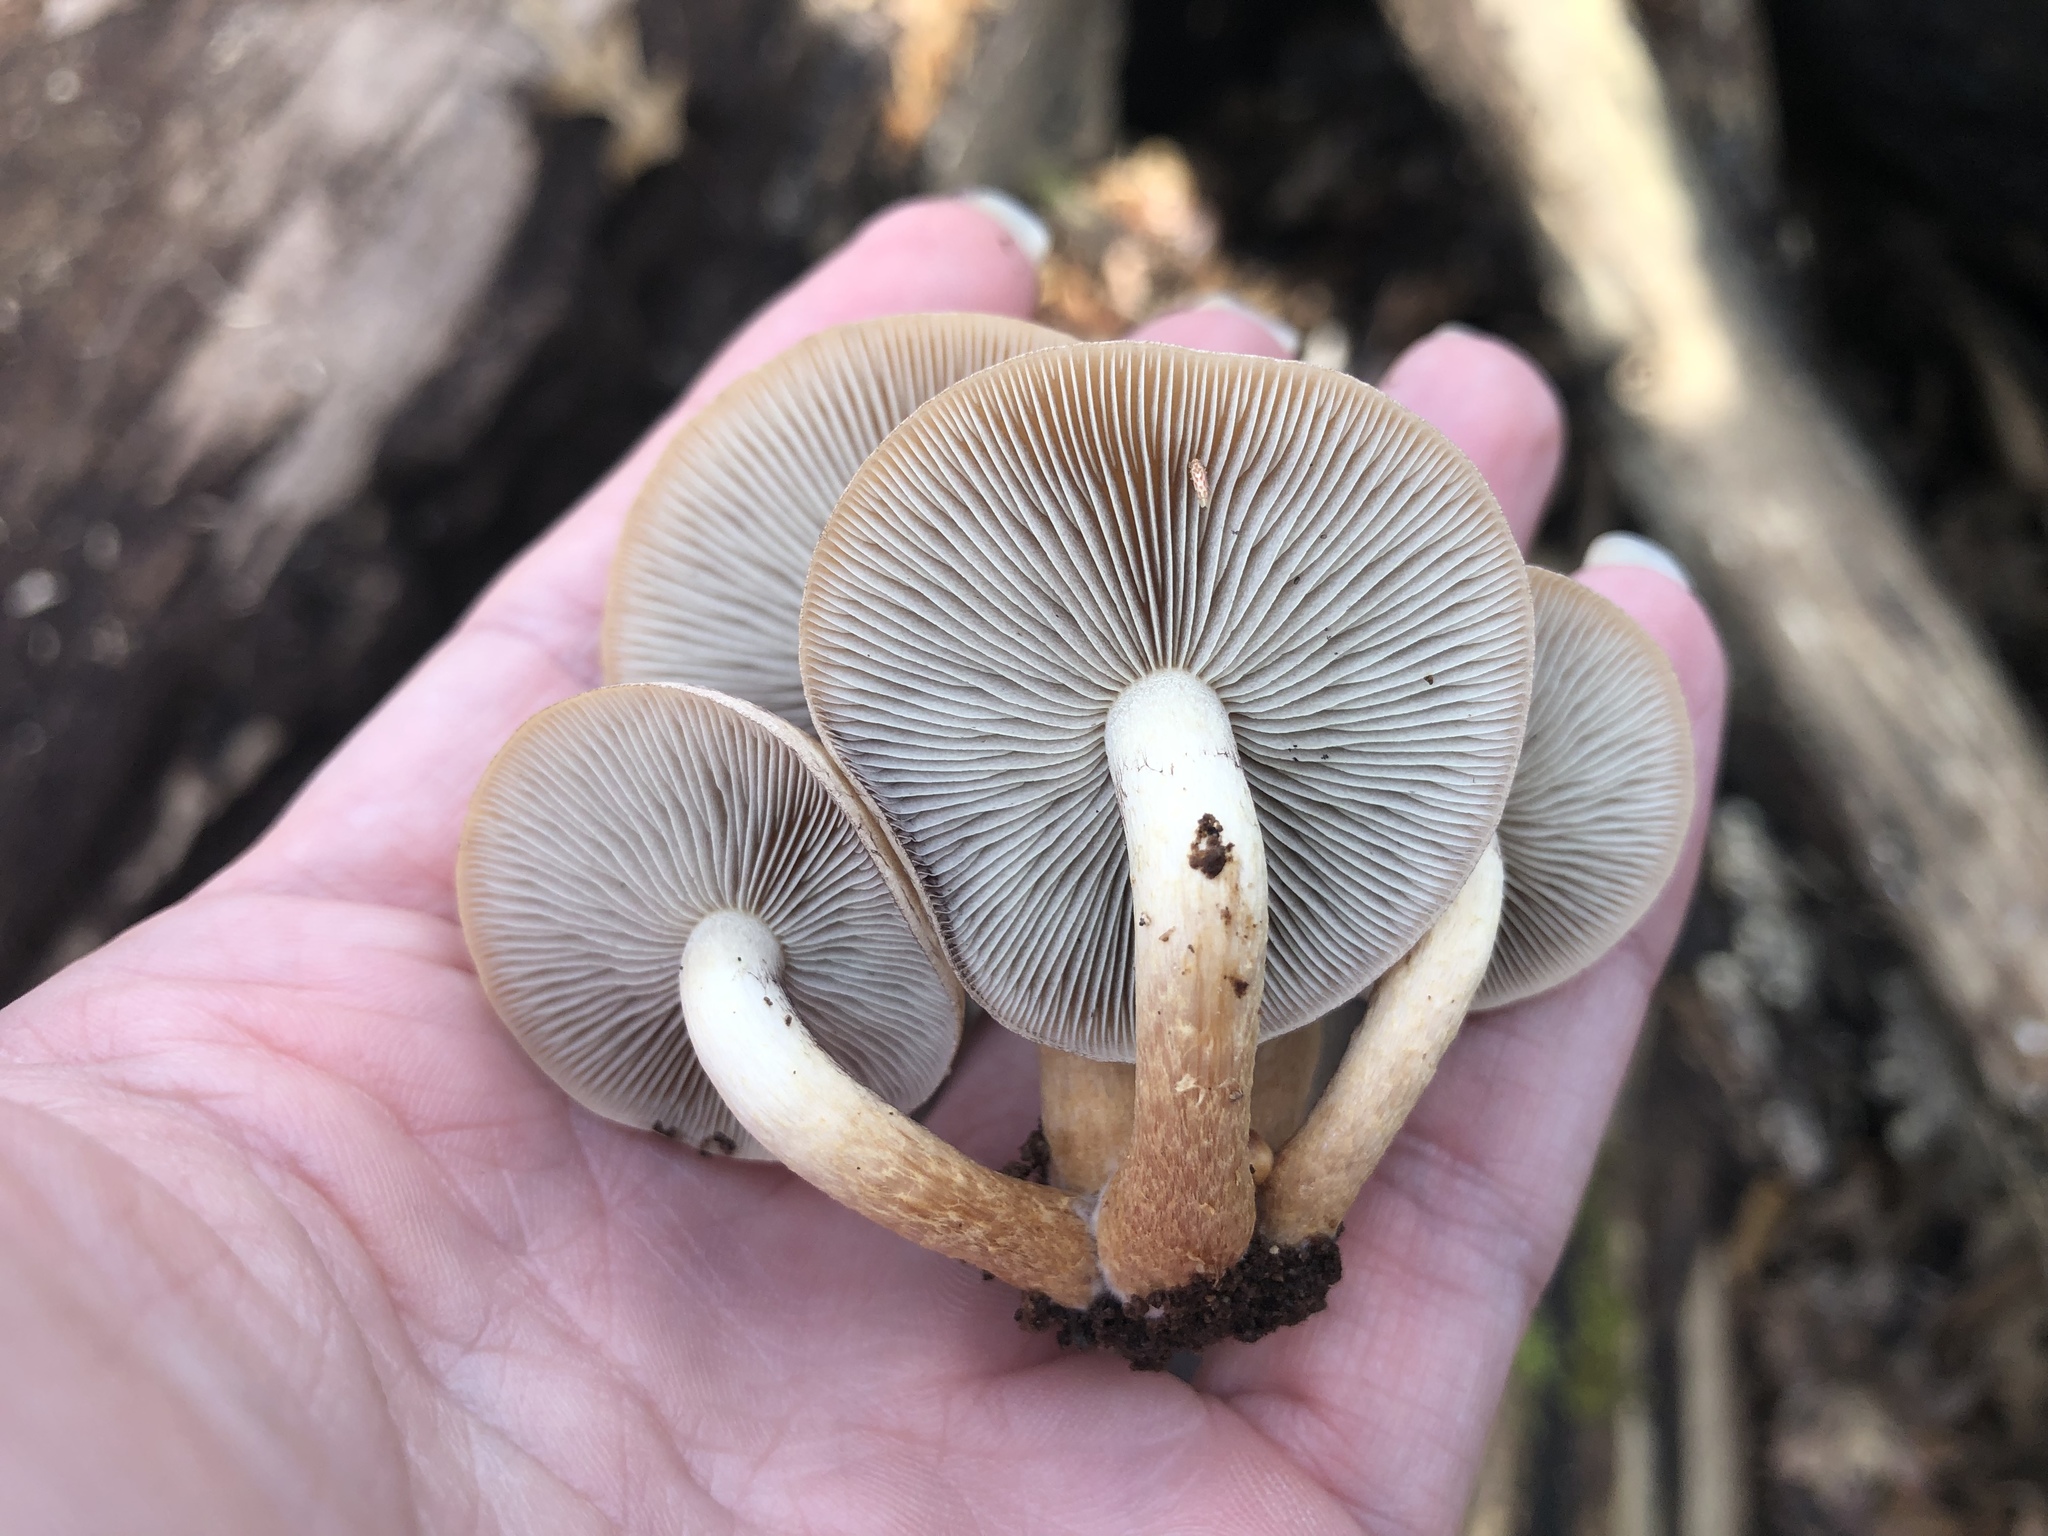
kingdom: Fungi
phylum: Basidiomycota
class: Agaricomycetes
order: Agaricales
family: Strophariaceae
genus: Hypholoma
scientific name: Hypholoma lateritium
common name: Brick caps
